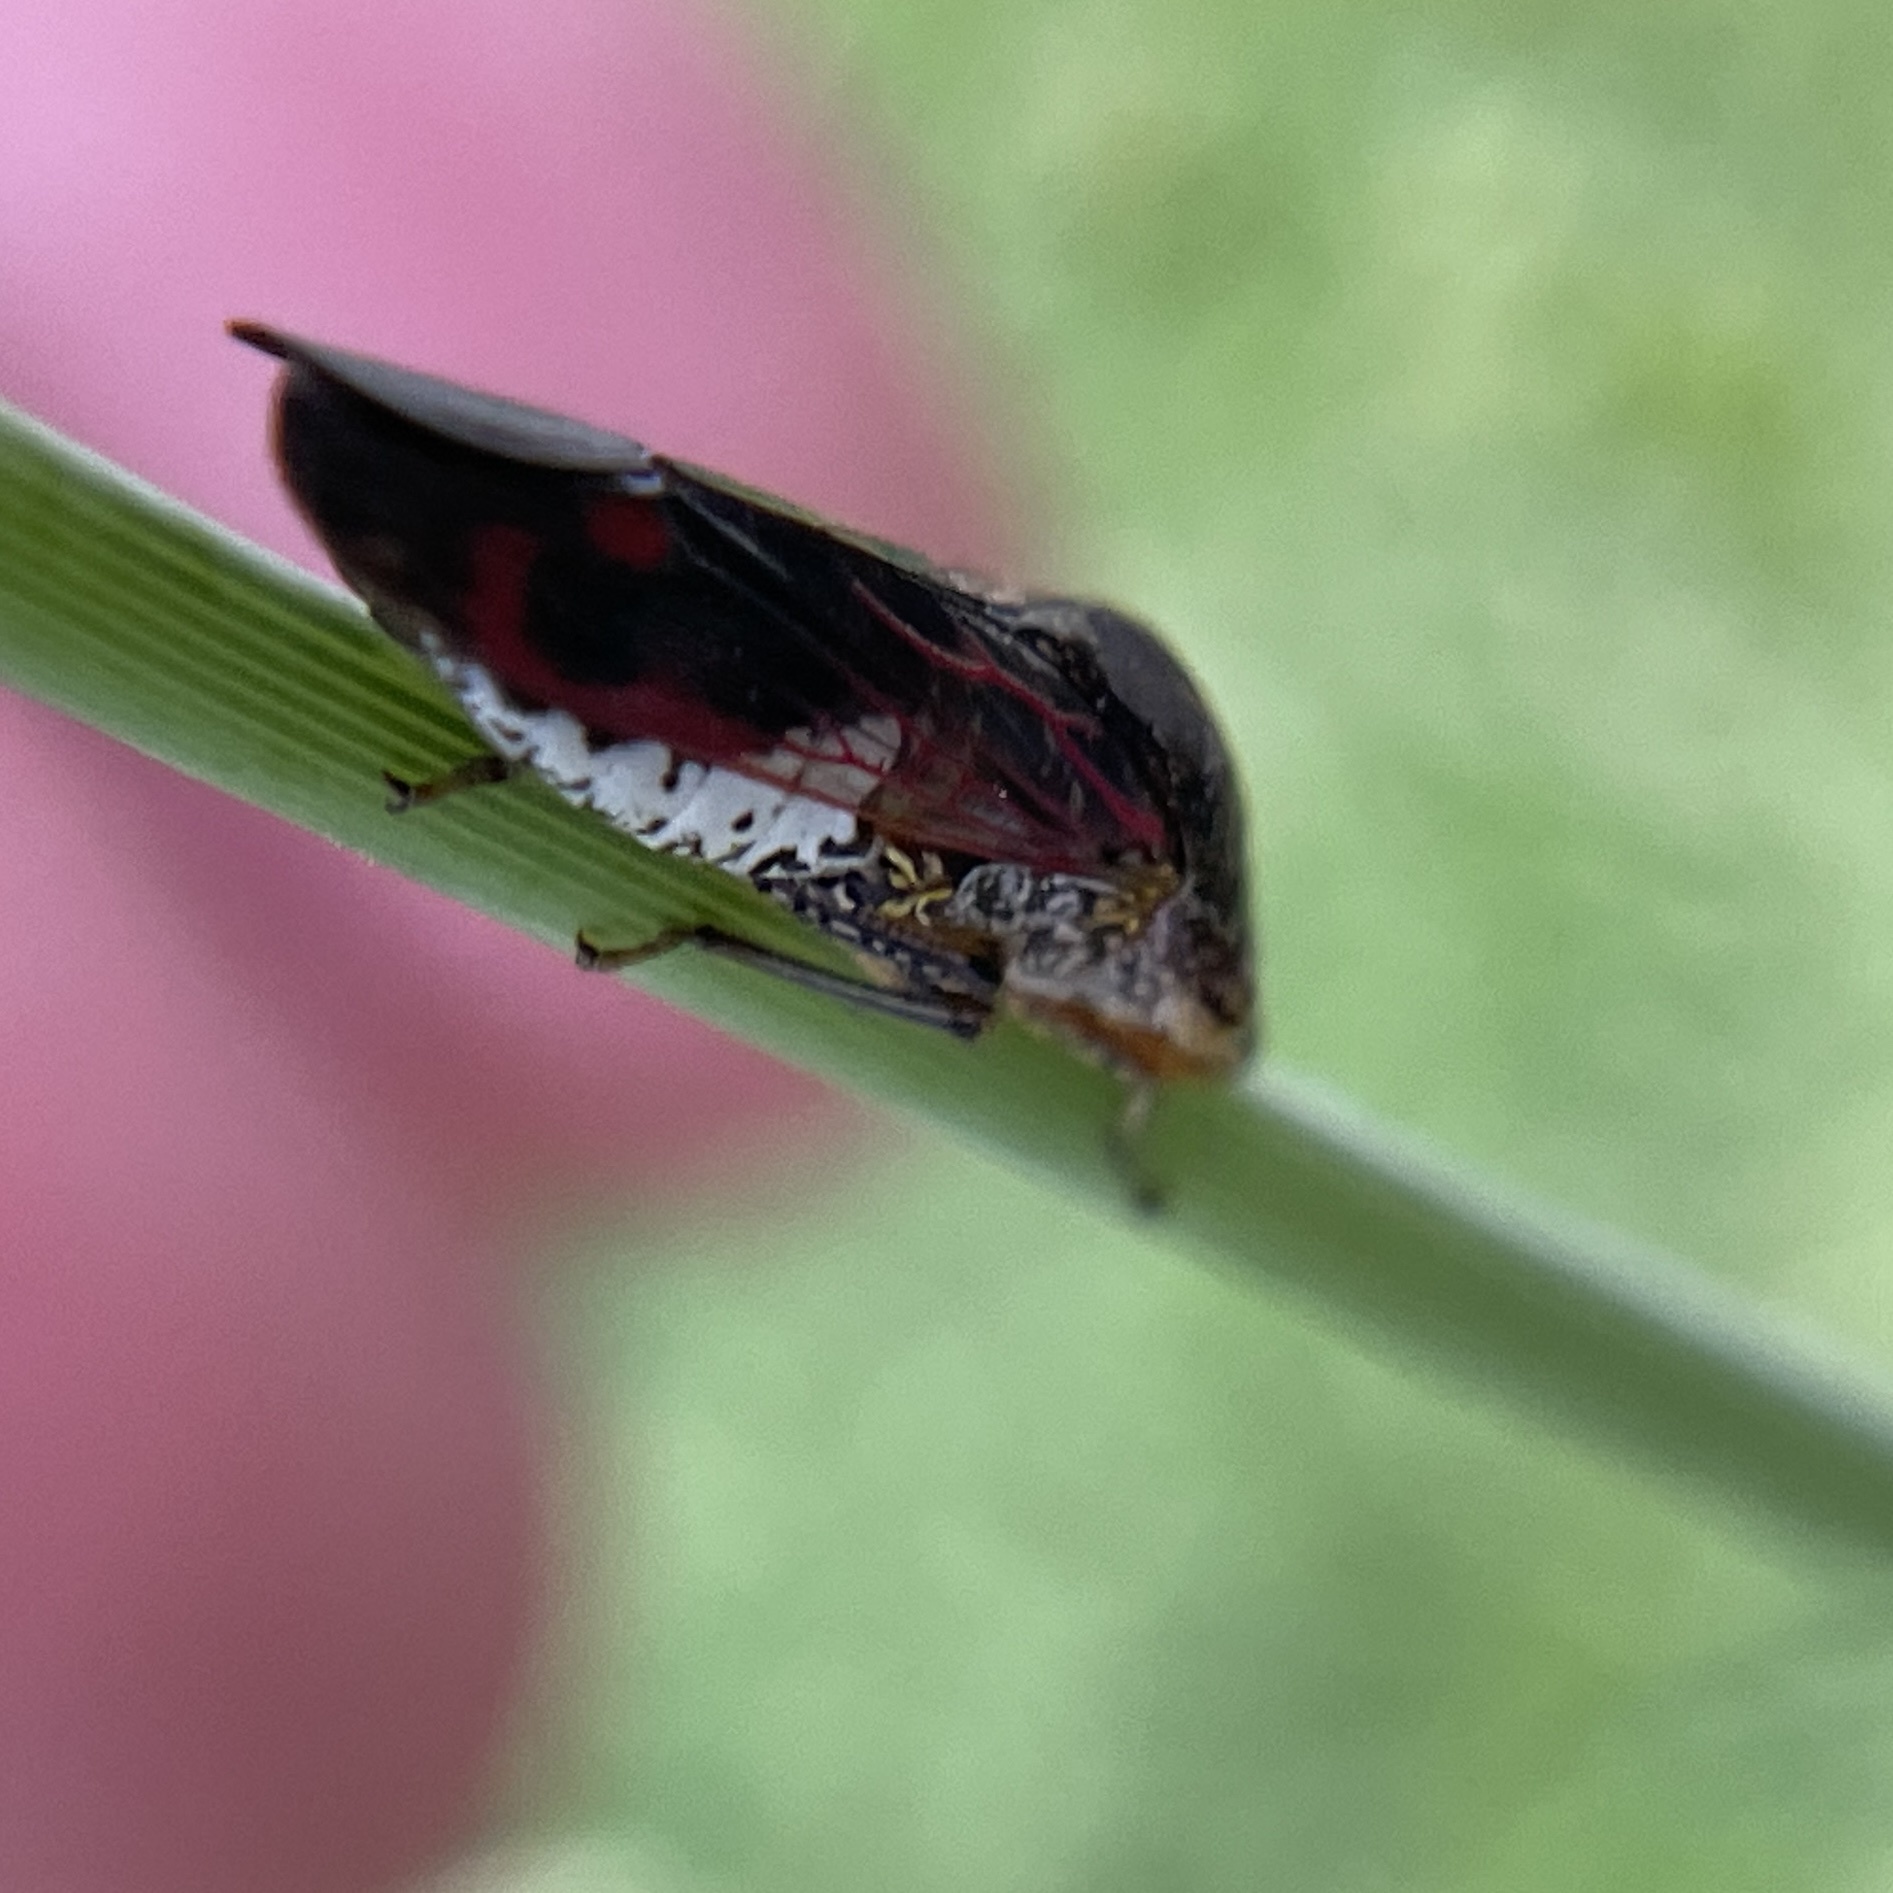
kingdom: Animalia
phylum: Arthropoda
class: Insecta
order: Hemiptera
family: Cicadellidae
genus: Homalodisca
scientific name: Homalodisca vitripennis
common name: Glassy-winged sharpshooter
